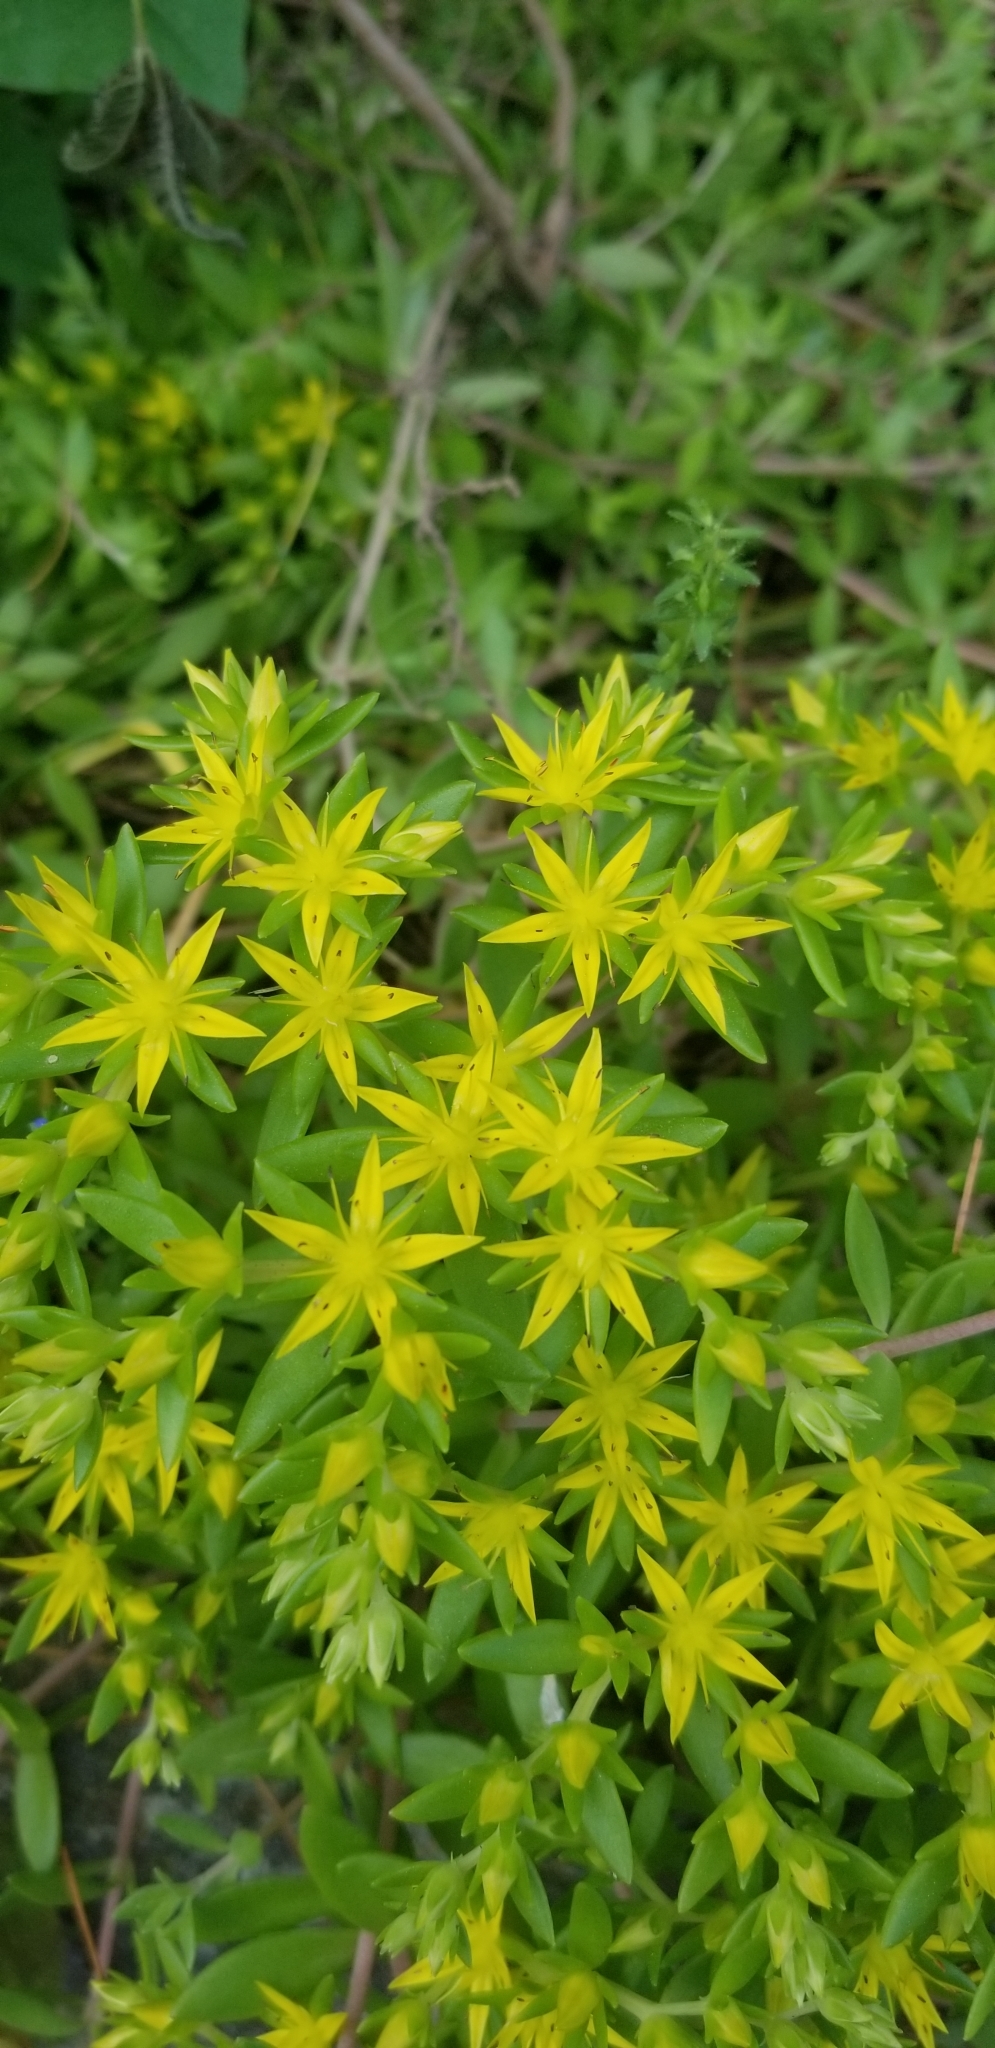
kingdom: Plantae
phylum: Tracheophyta
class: Magnoliopsida
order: Saxifragales
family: Crassulaceae
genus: Sedum
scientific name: Sedum sarmentosum
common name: Stringy stonecrop
